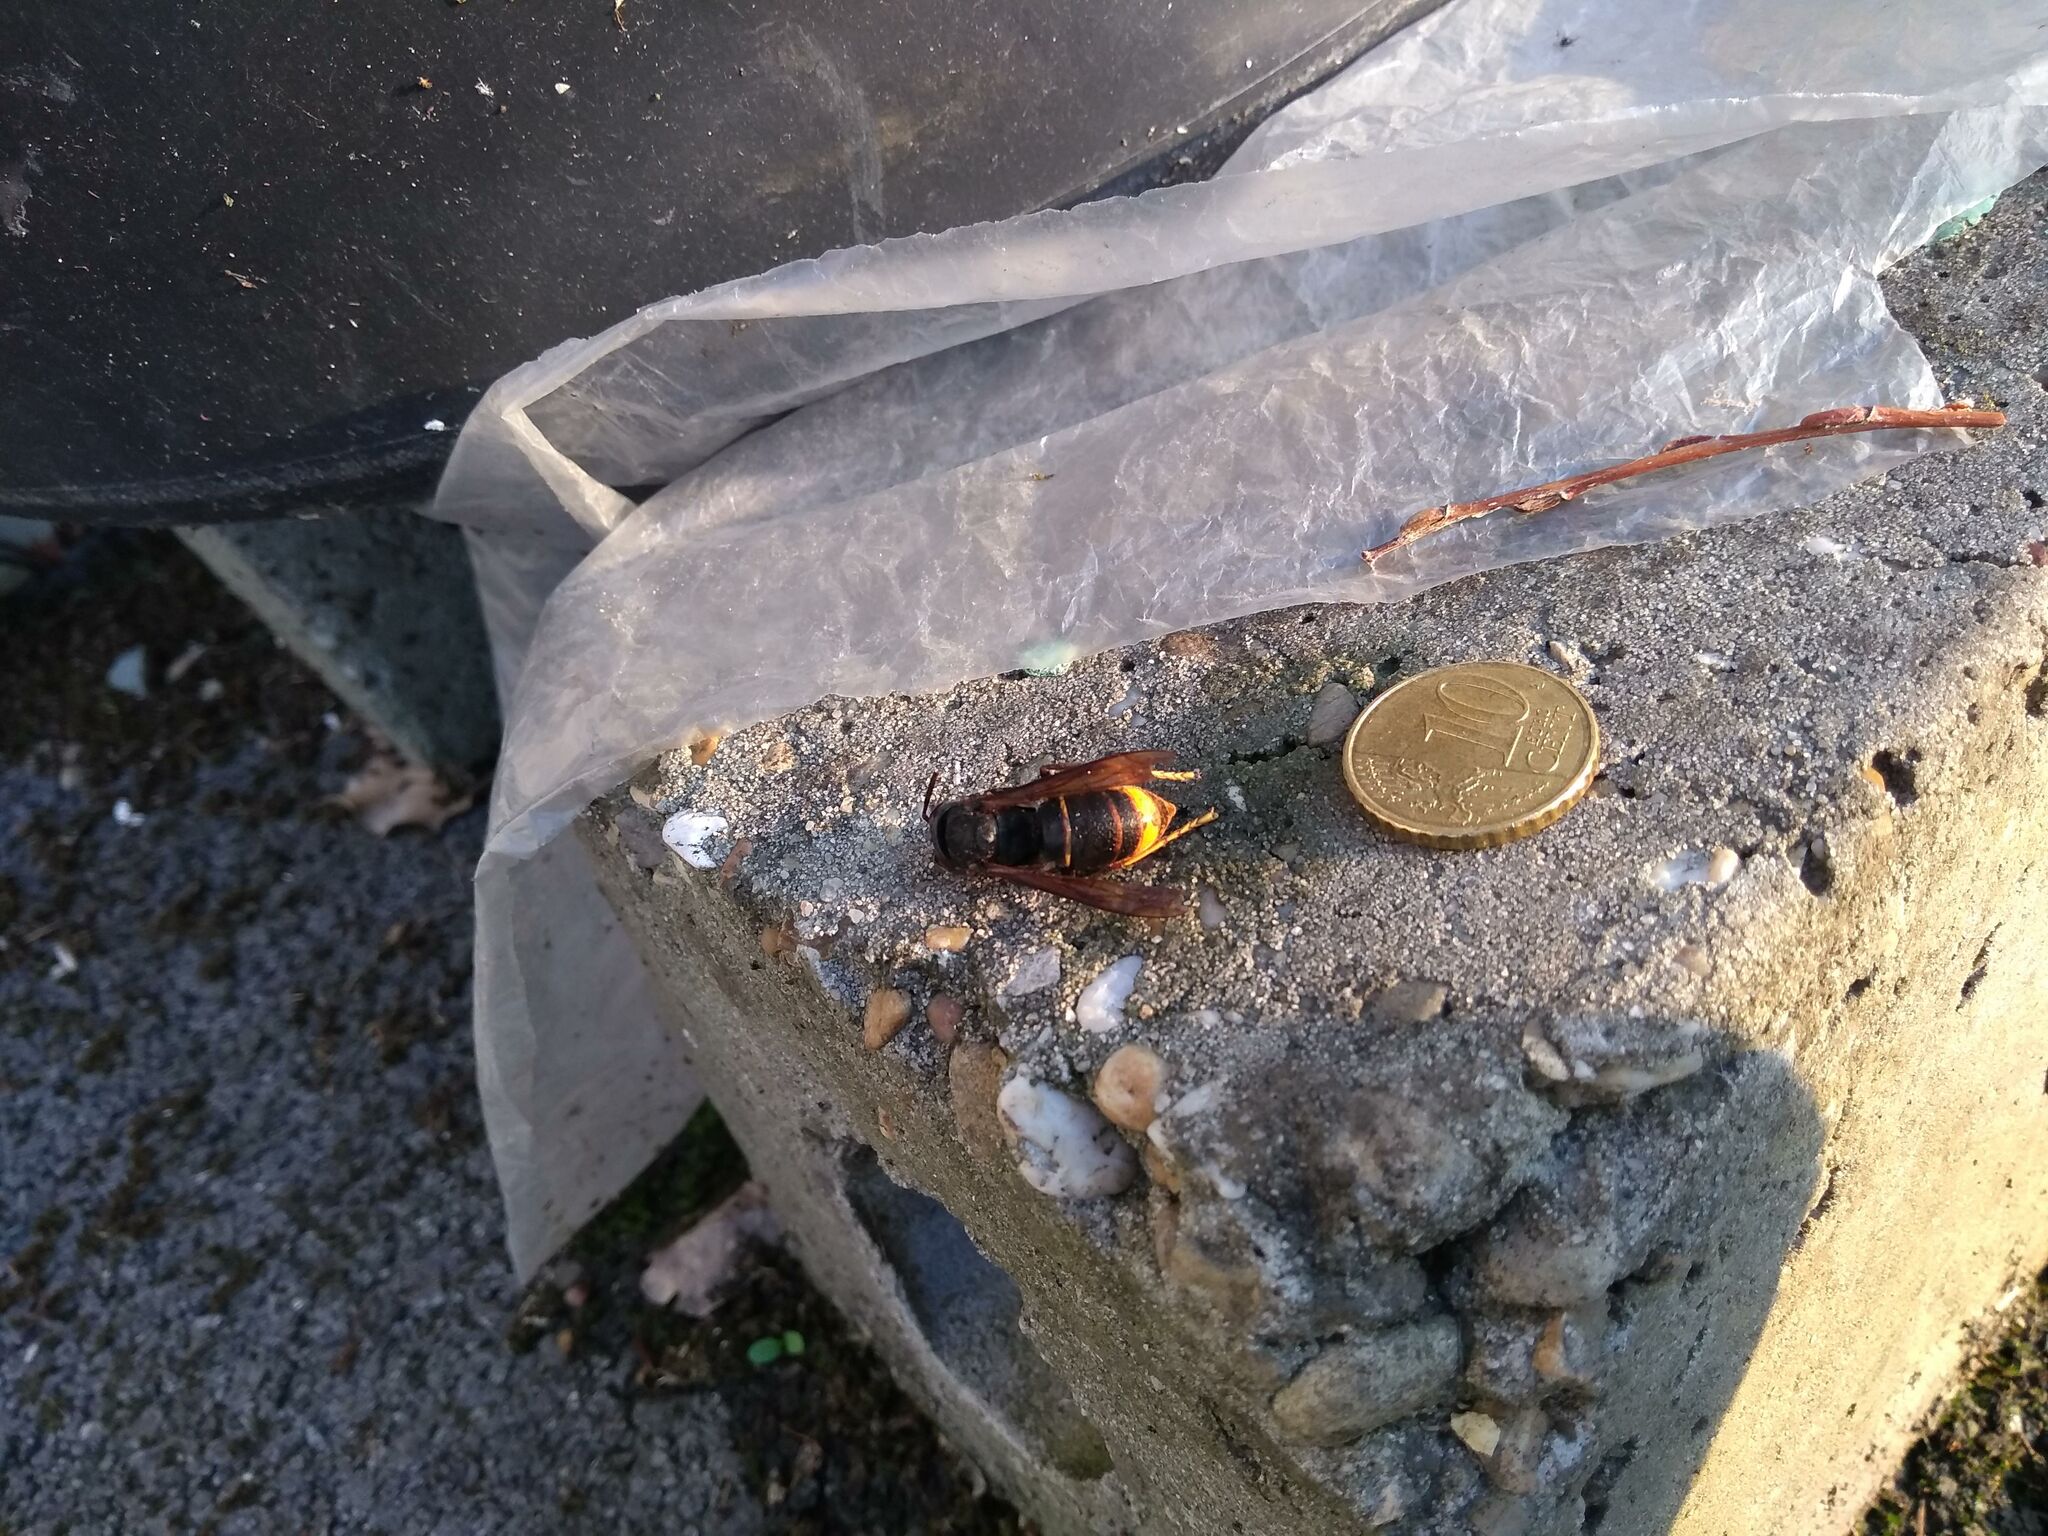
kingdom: Animalia
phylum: Arthropoda
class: Insecta
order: Hymenoptera
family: Vespidae
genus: Vespa
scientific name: Vespa velutina
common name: Asian hornet
